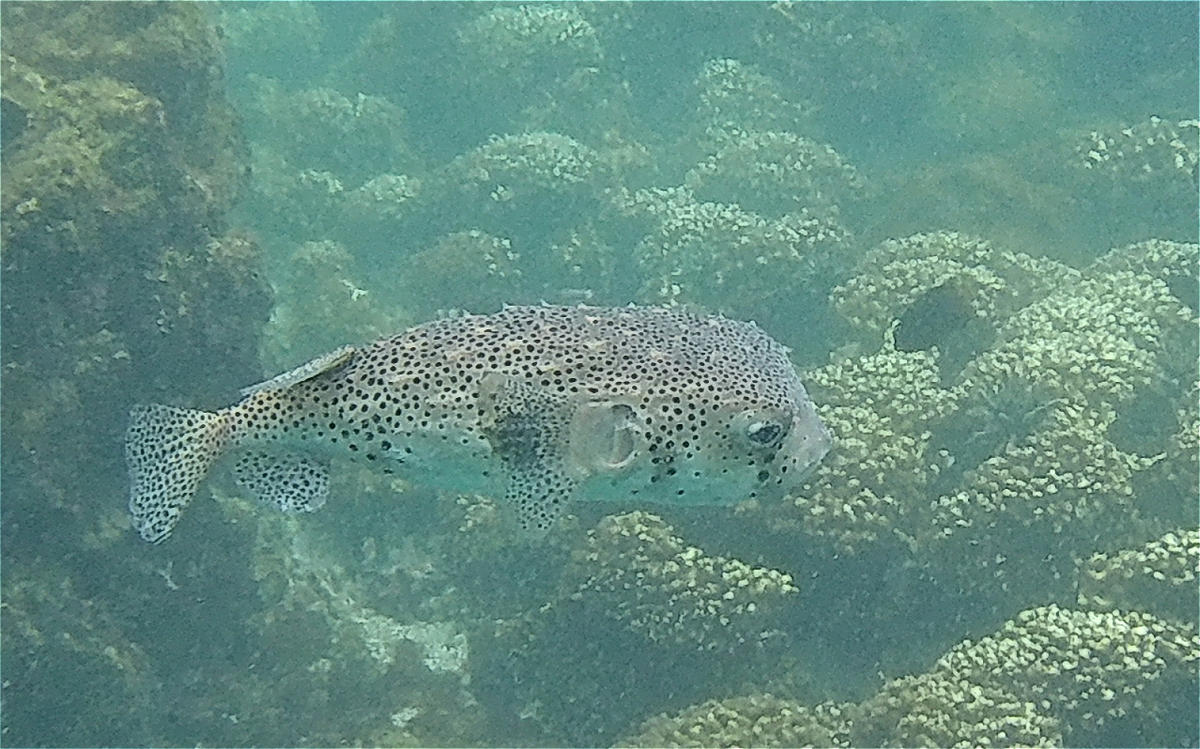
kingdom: Animalia
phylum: Chordata
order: Tetraodontiformes
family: Diodontidae
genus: Chilomycterus
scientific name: Chilomycterus reticulatus
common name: Spotfin burrfish
